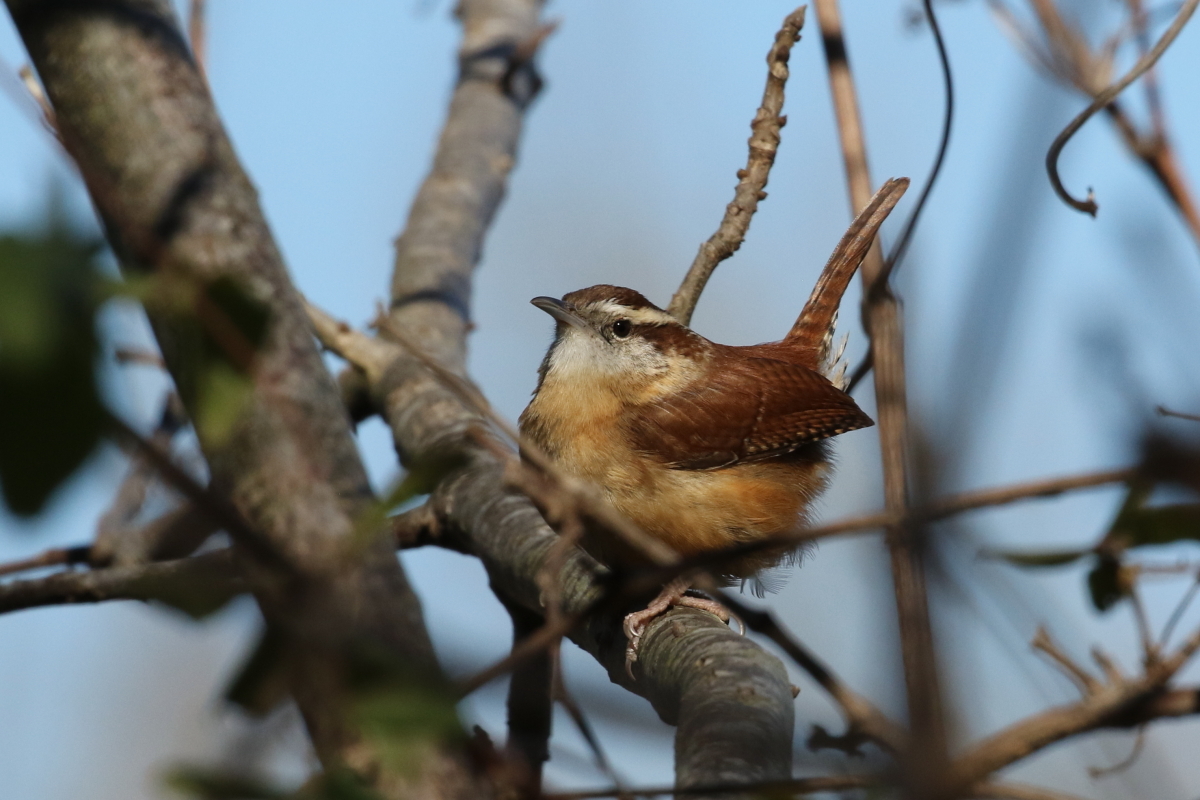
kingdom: Animalia
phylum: Chordata
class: Aves
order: Passeriformes
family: Troglodytidae
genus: Thryothorus
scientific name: Thryothorus ludovicianus
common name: Carolina wren
